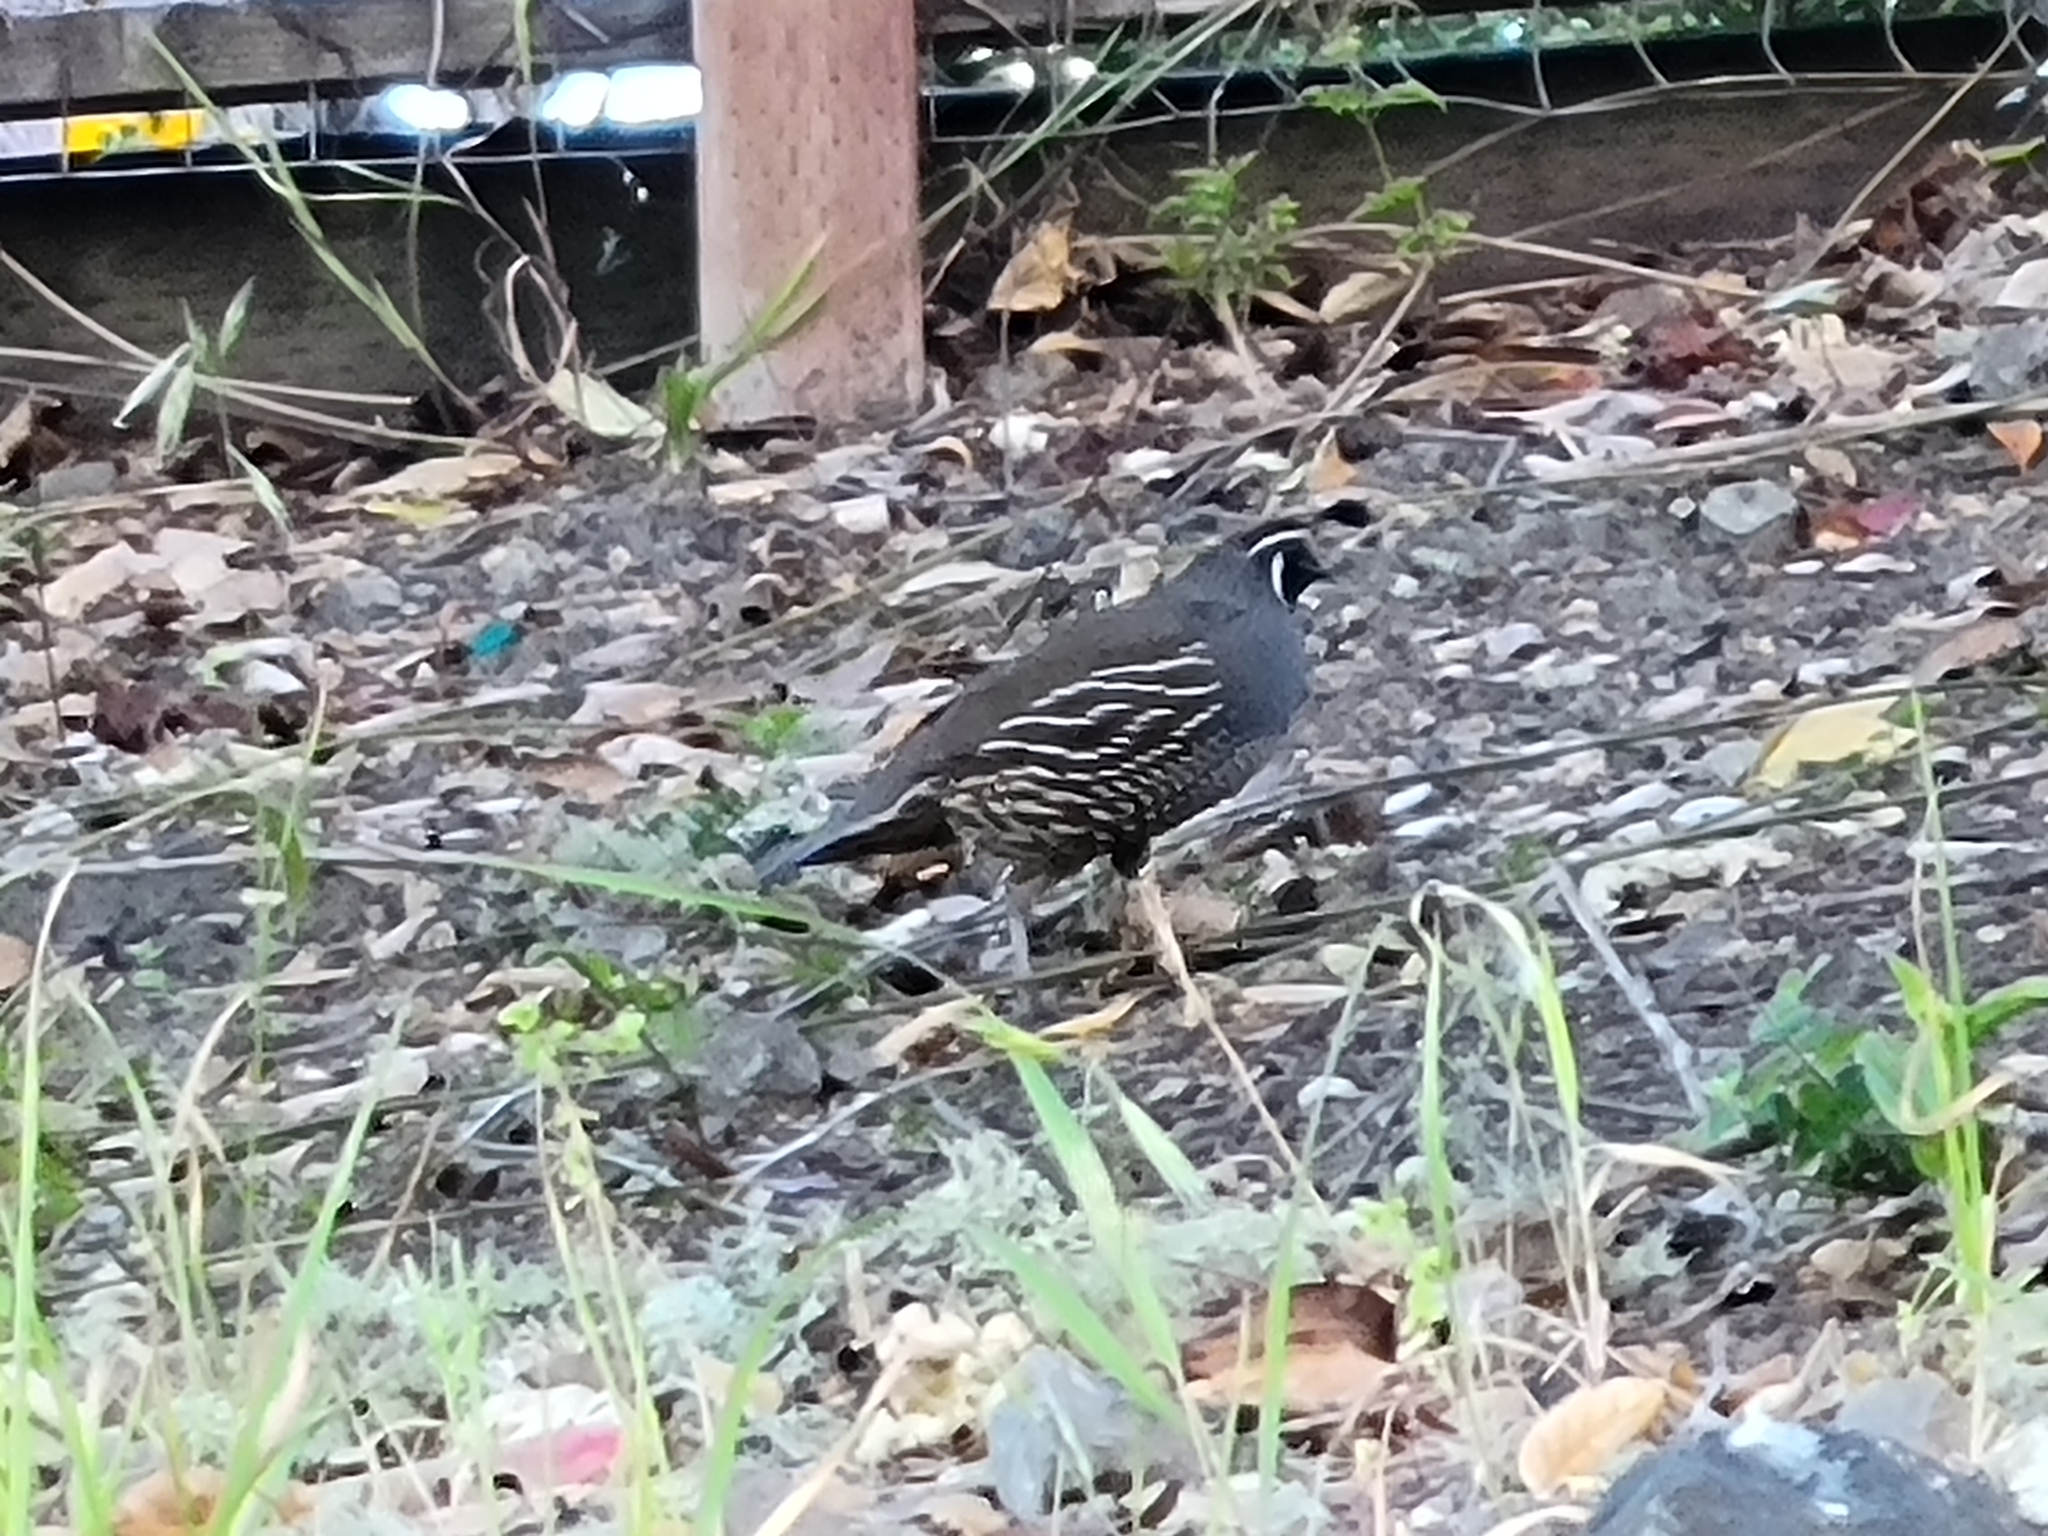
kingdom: Animalia
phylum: Chordata
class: Aves
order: Galliformes
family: Odontophoridae
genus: Callipepla
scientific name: Callipepla californica
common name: California quail
